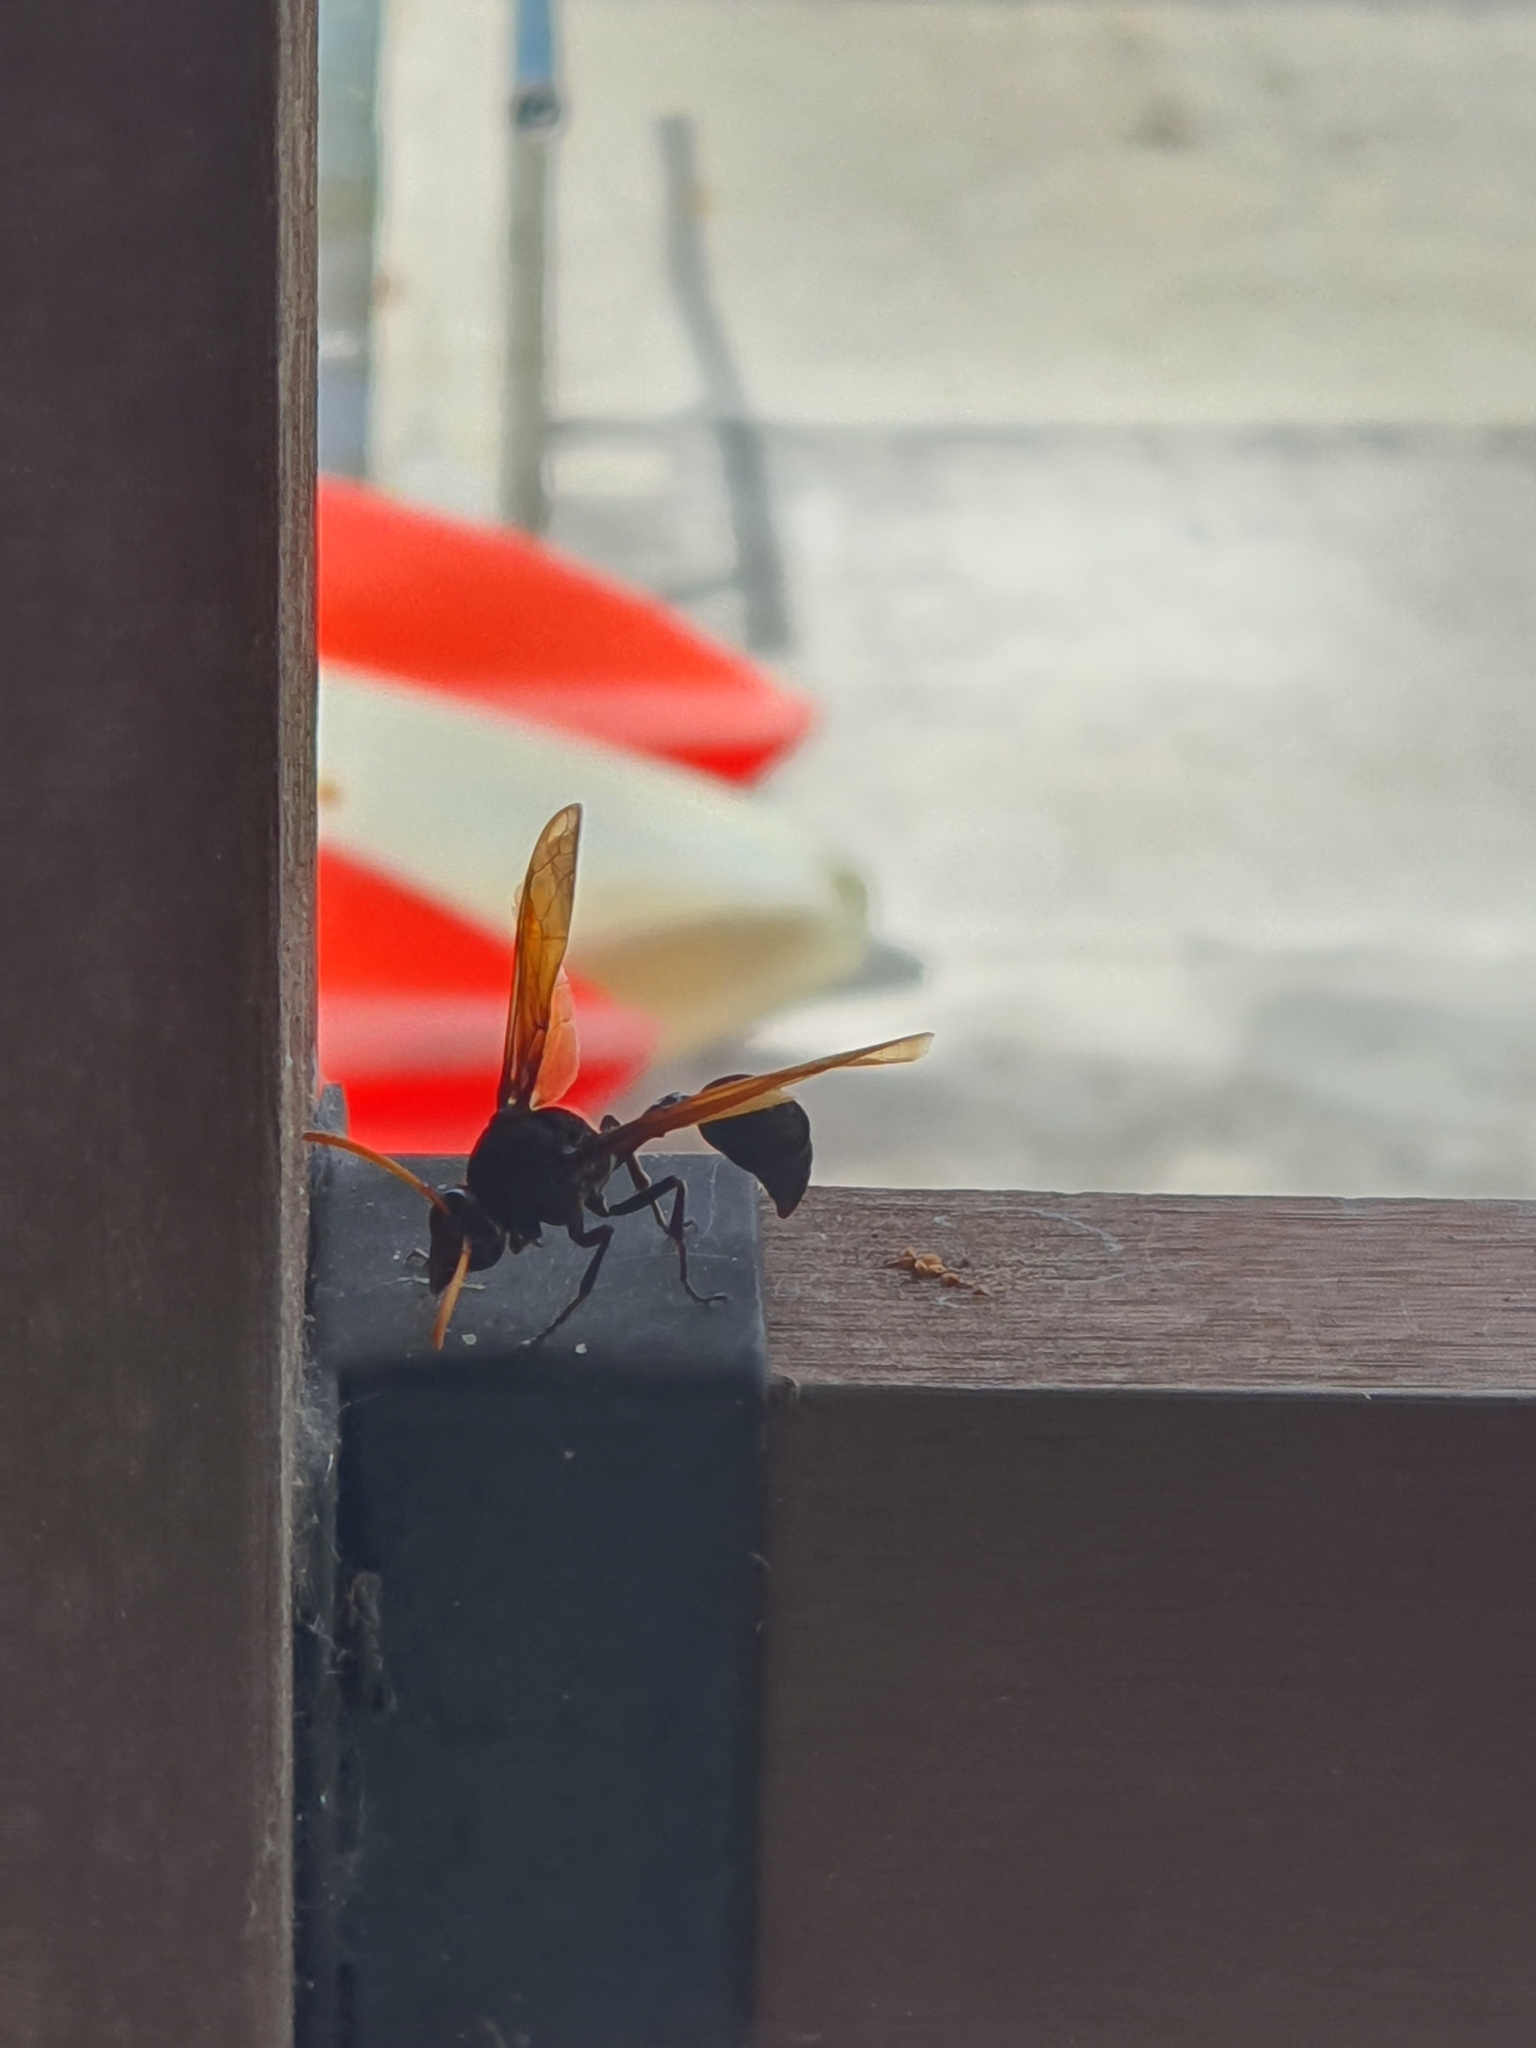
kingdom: Animalia
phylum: Arthropoda
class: Insecta
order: Hymenoptera
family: Eumenidae
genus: Delta
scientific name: Delta pyriforme
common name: Wasp
